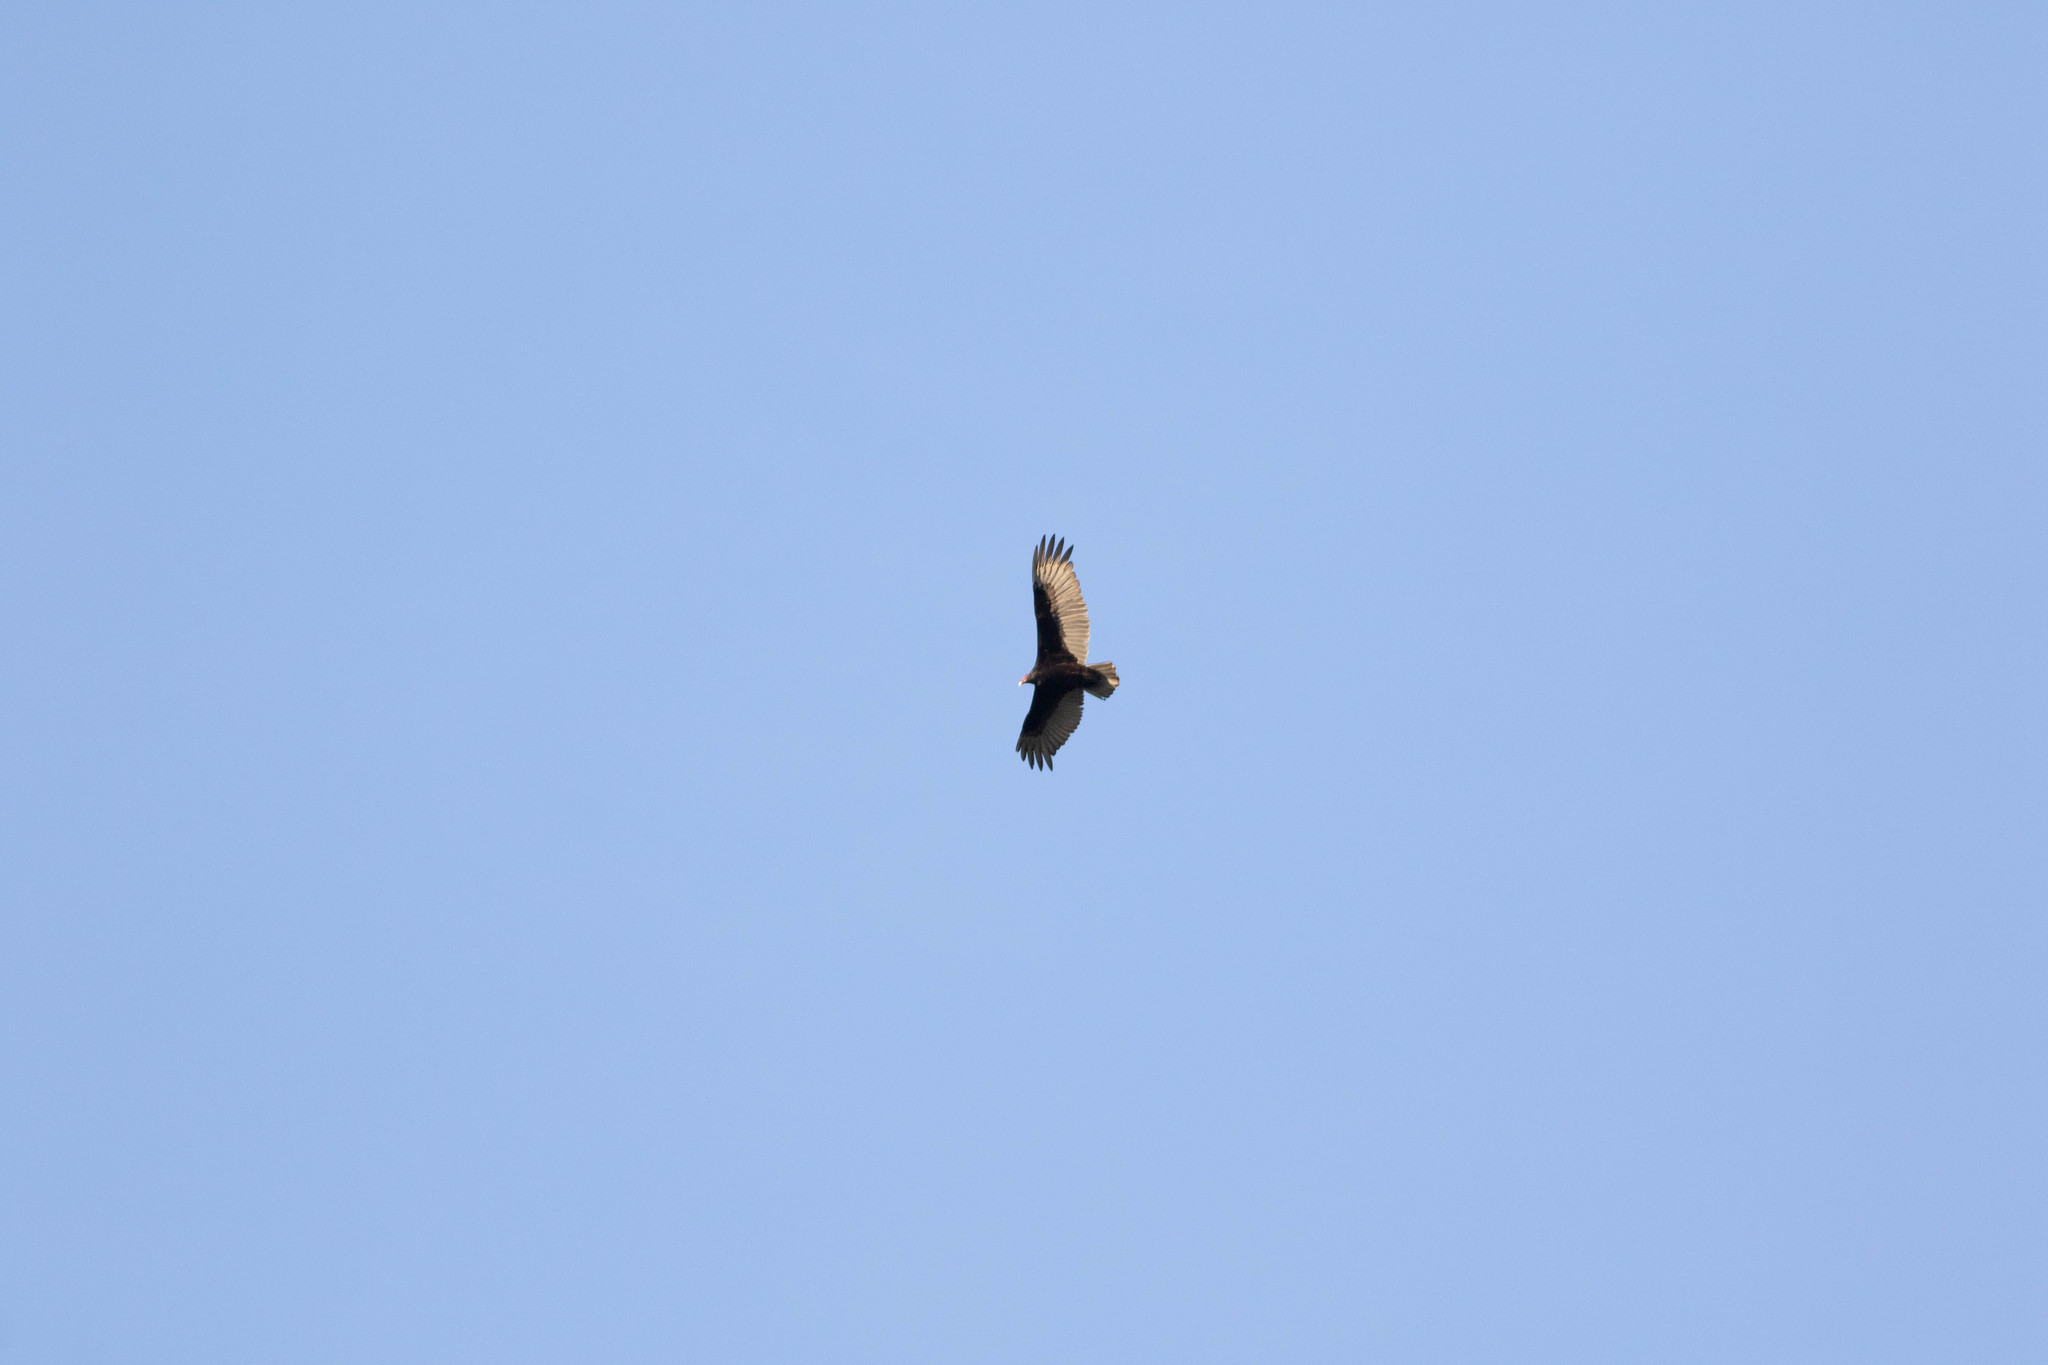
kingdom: Animalia
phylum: Chordata
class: Aves
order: Accipitriformes
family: Cathartidae
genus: Cathartes
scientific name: Cathartes aura
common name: Turkey vulture
